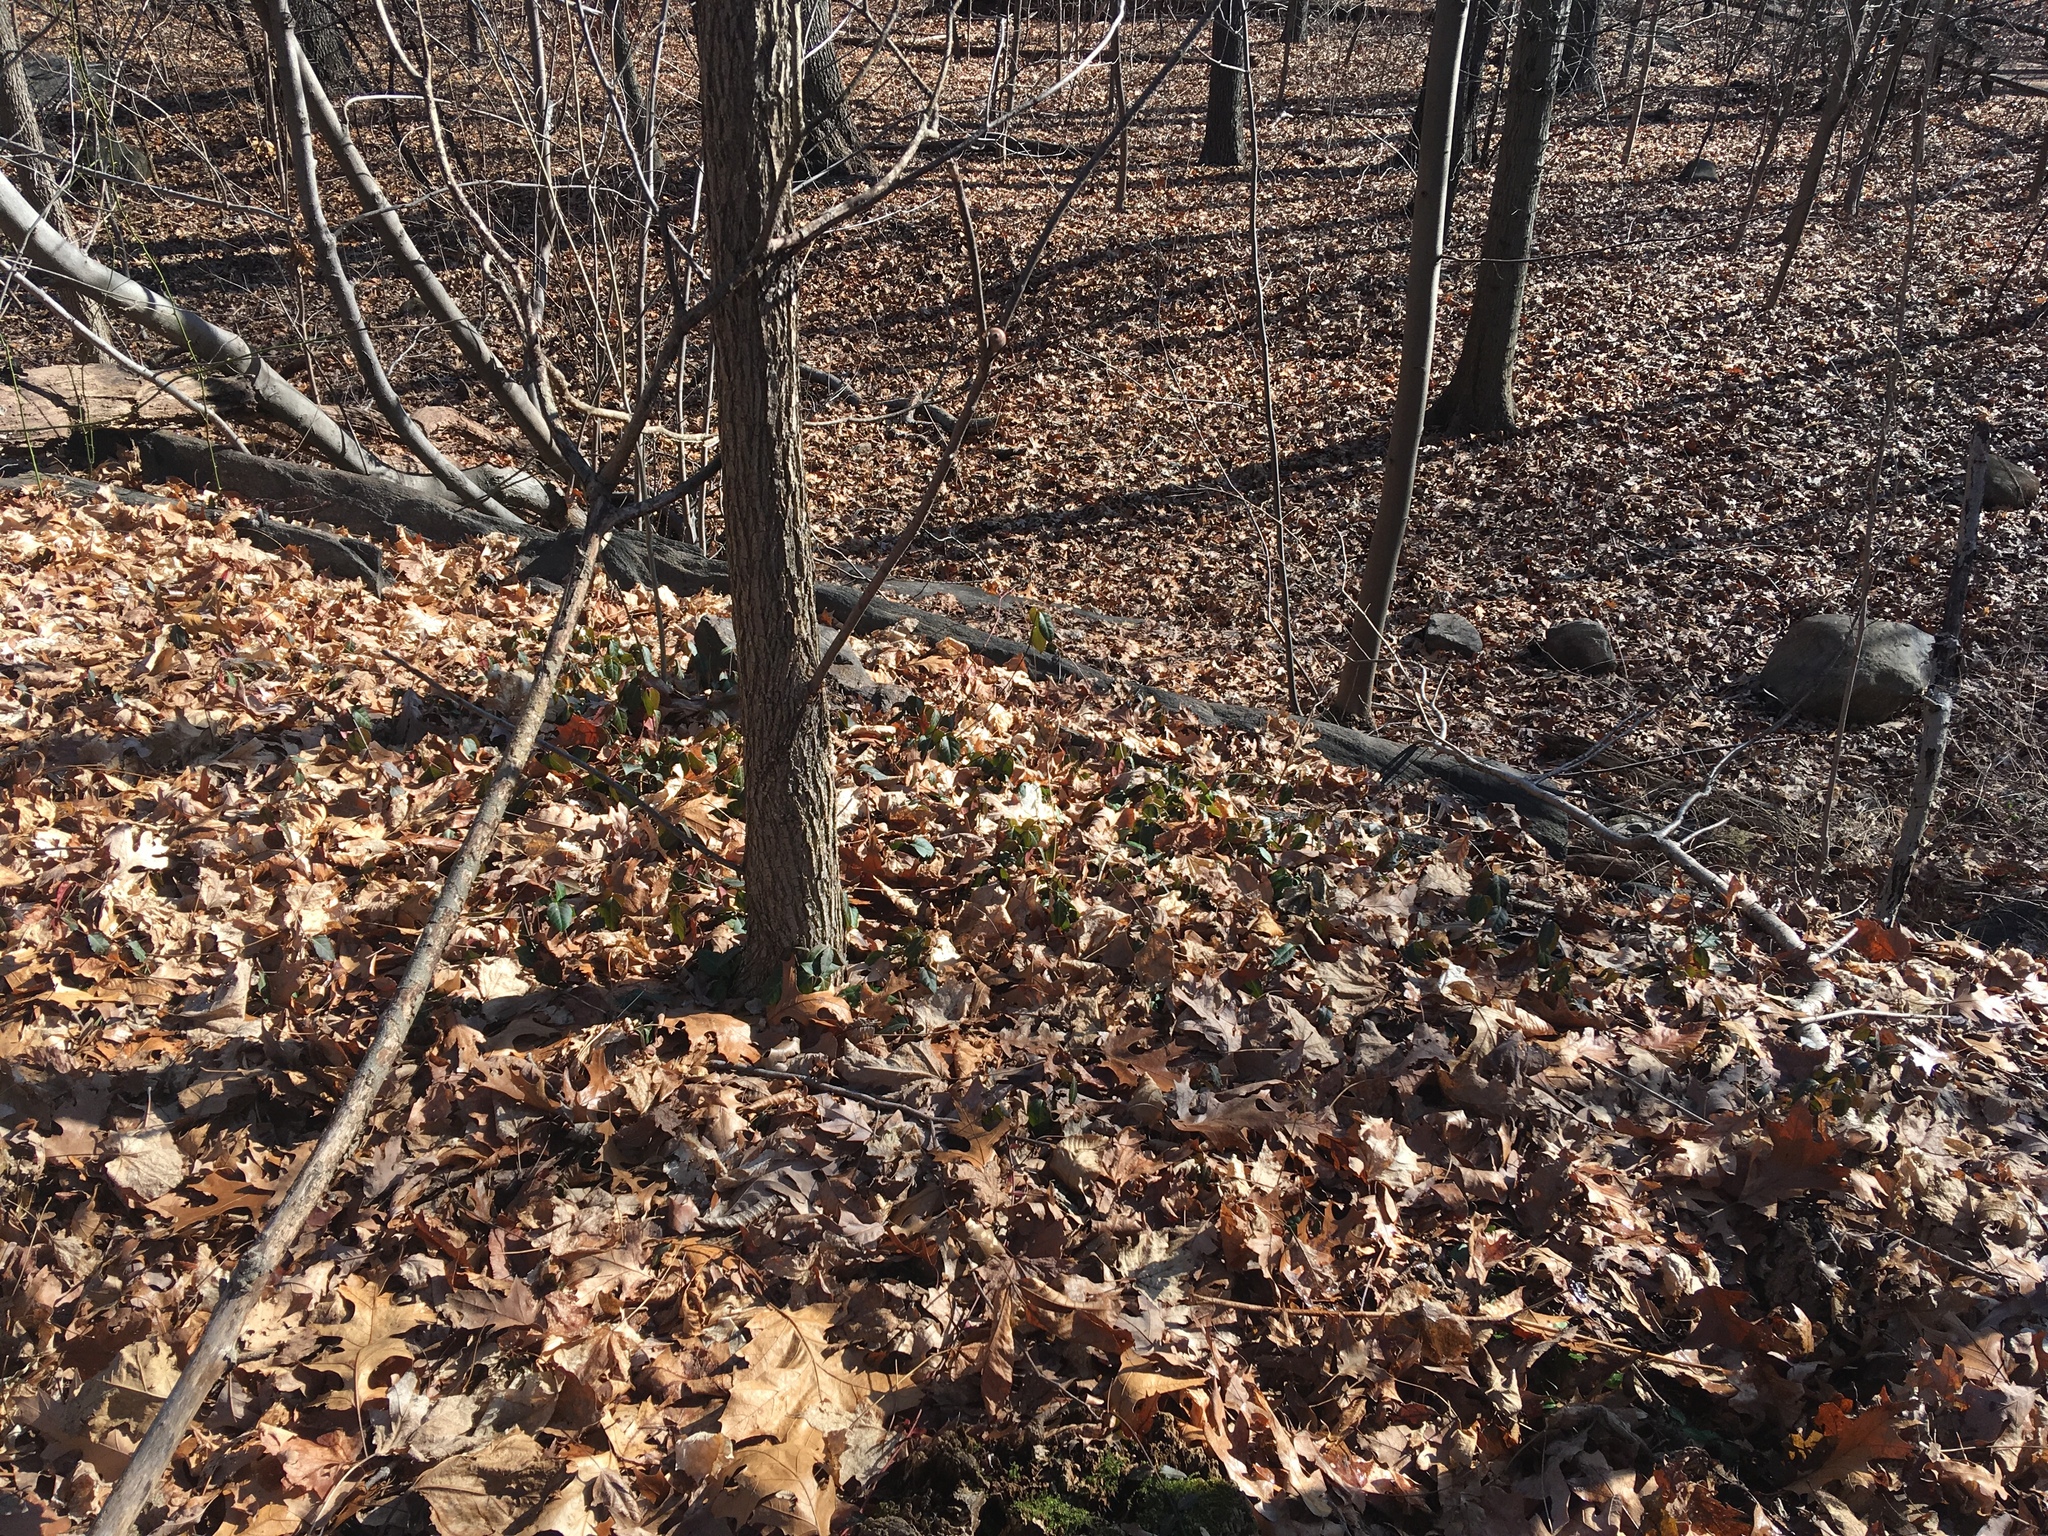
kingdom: Plantae
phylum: Tracheophyta
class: Magnoliopsida
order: Celastrales
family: Celastraceae
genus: Euonymus
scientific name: Euonymus fortunei
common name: Climbing euonymus
